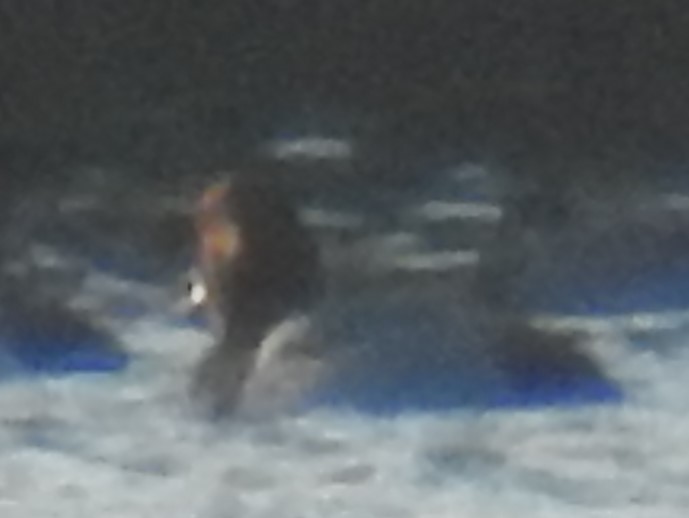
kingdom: Animalia
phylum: Chordata
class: Aves
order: Anseriformes
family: Anatidae
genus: Aythya
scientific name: Aythya americana
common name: Redhead
